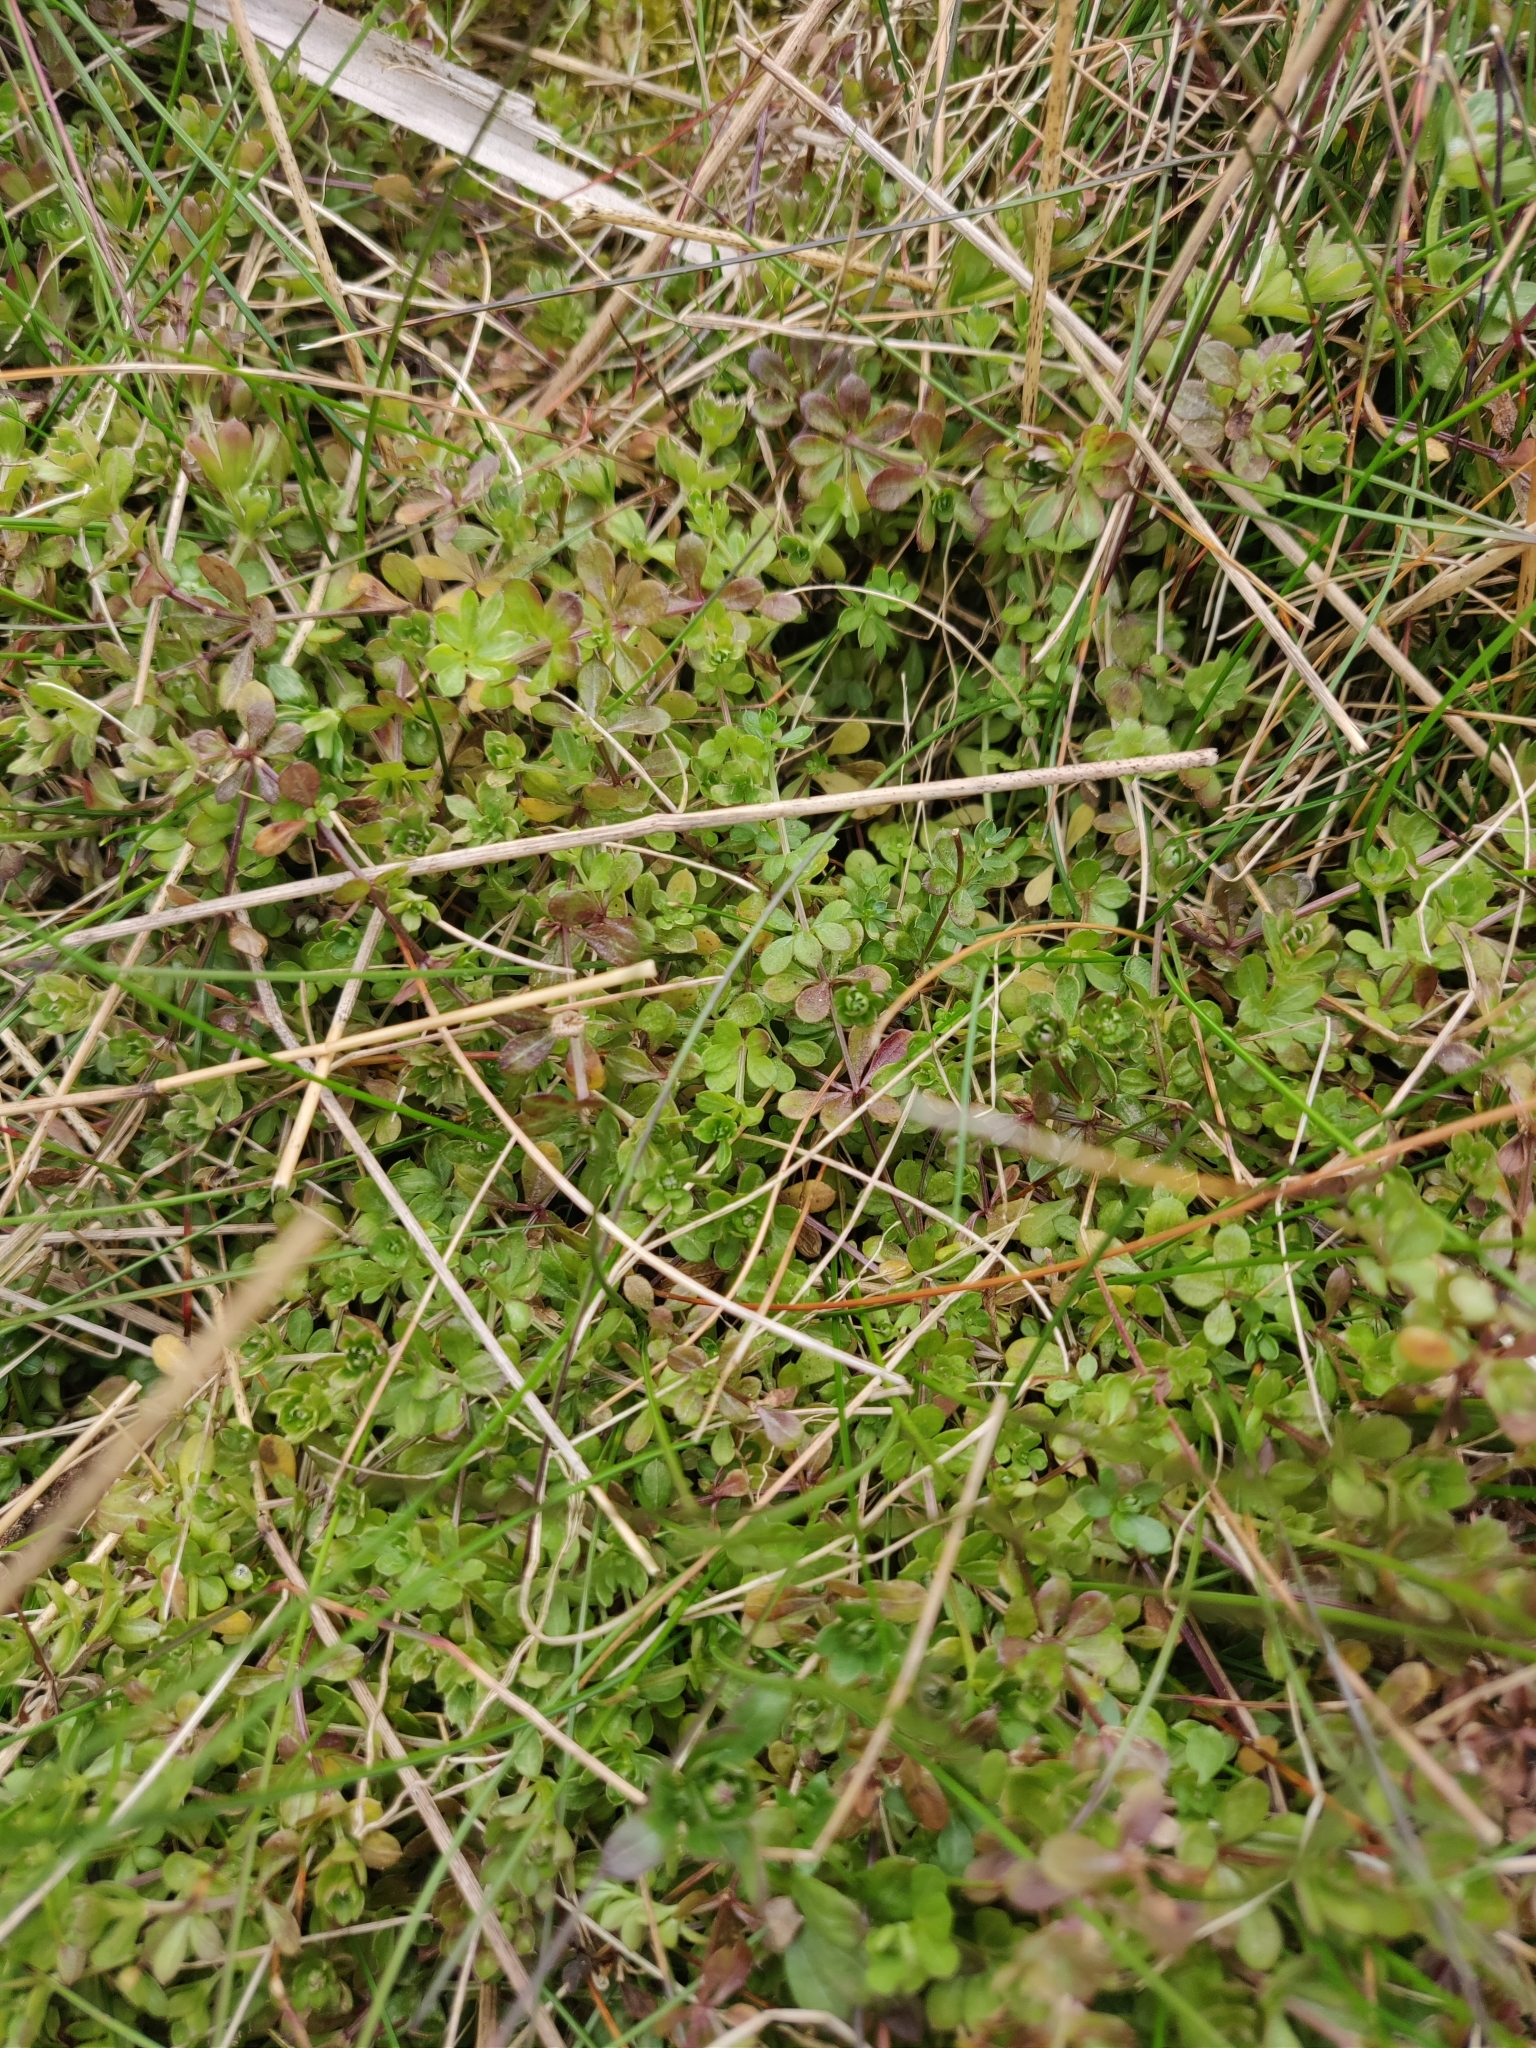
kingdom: Plantae
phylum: Tracheophyta
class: Magnoliopsida
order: Gentianales
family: Rubiaceae
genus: Galium
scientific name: Galium saxatile
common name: Heath bedstraw
